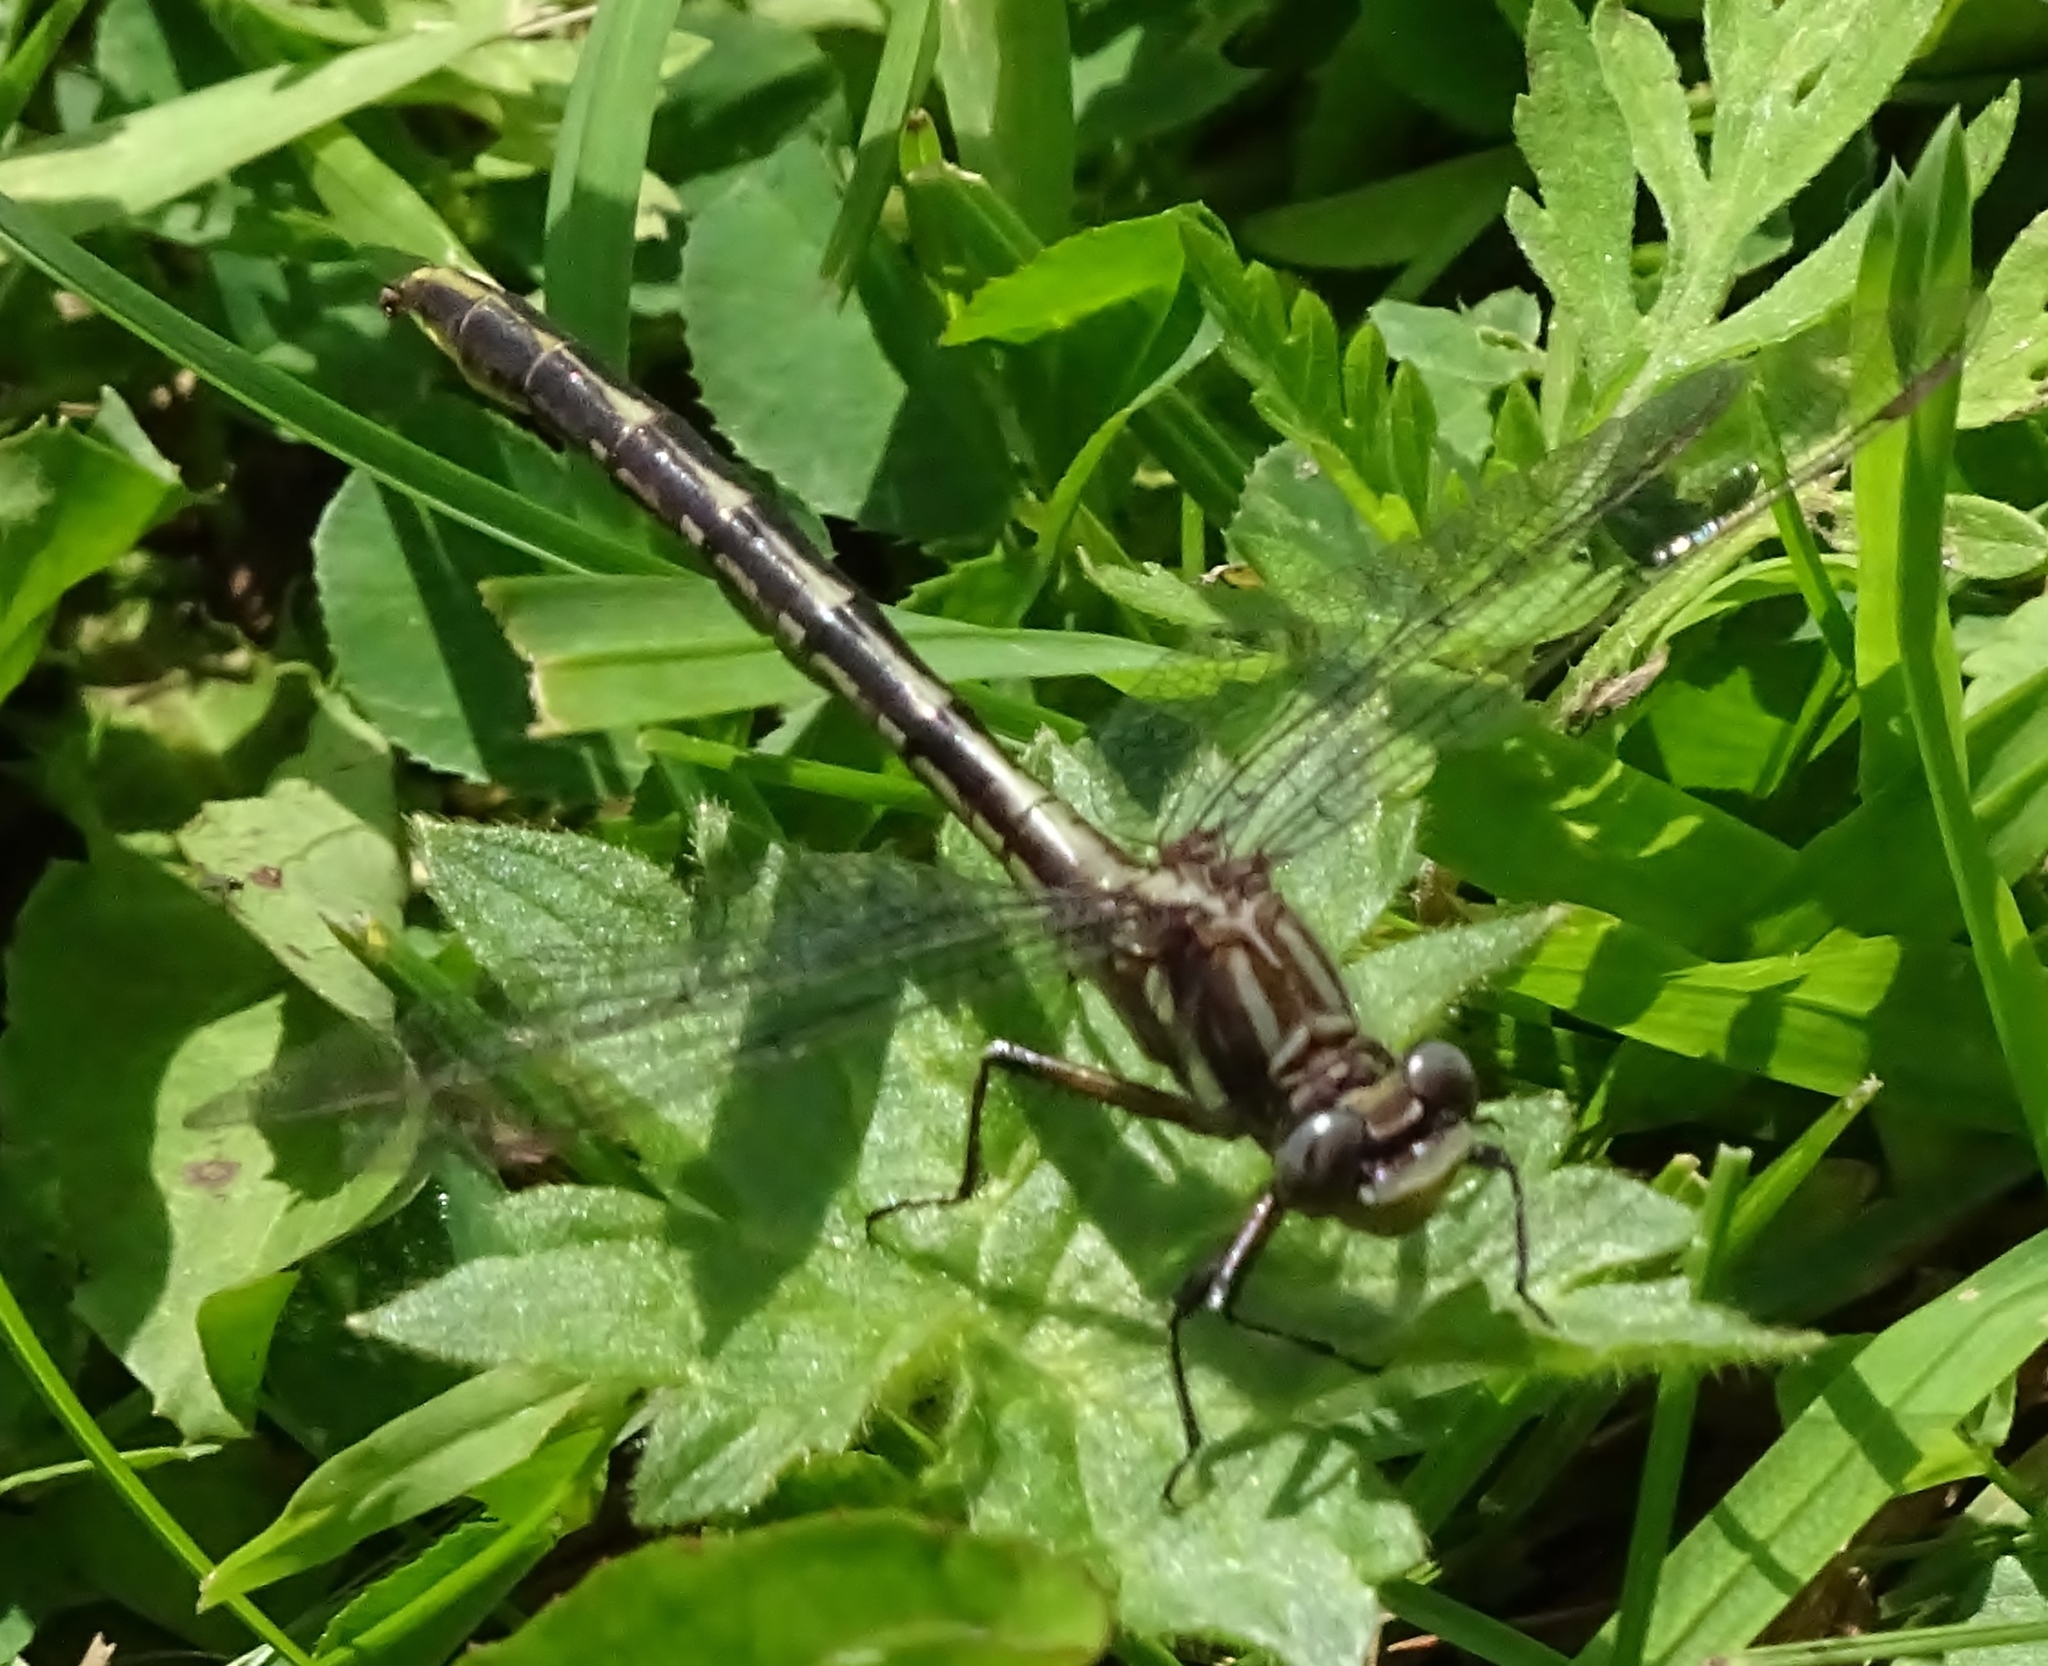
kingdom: Animalia
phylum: Arthropoda
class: Insecta
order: Odonata
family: Gomphidae
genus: Phanogomphus
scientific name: Phanogomphus exilis
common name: Lancet clubtail
